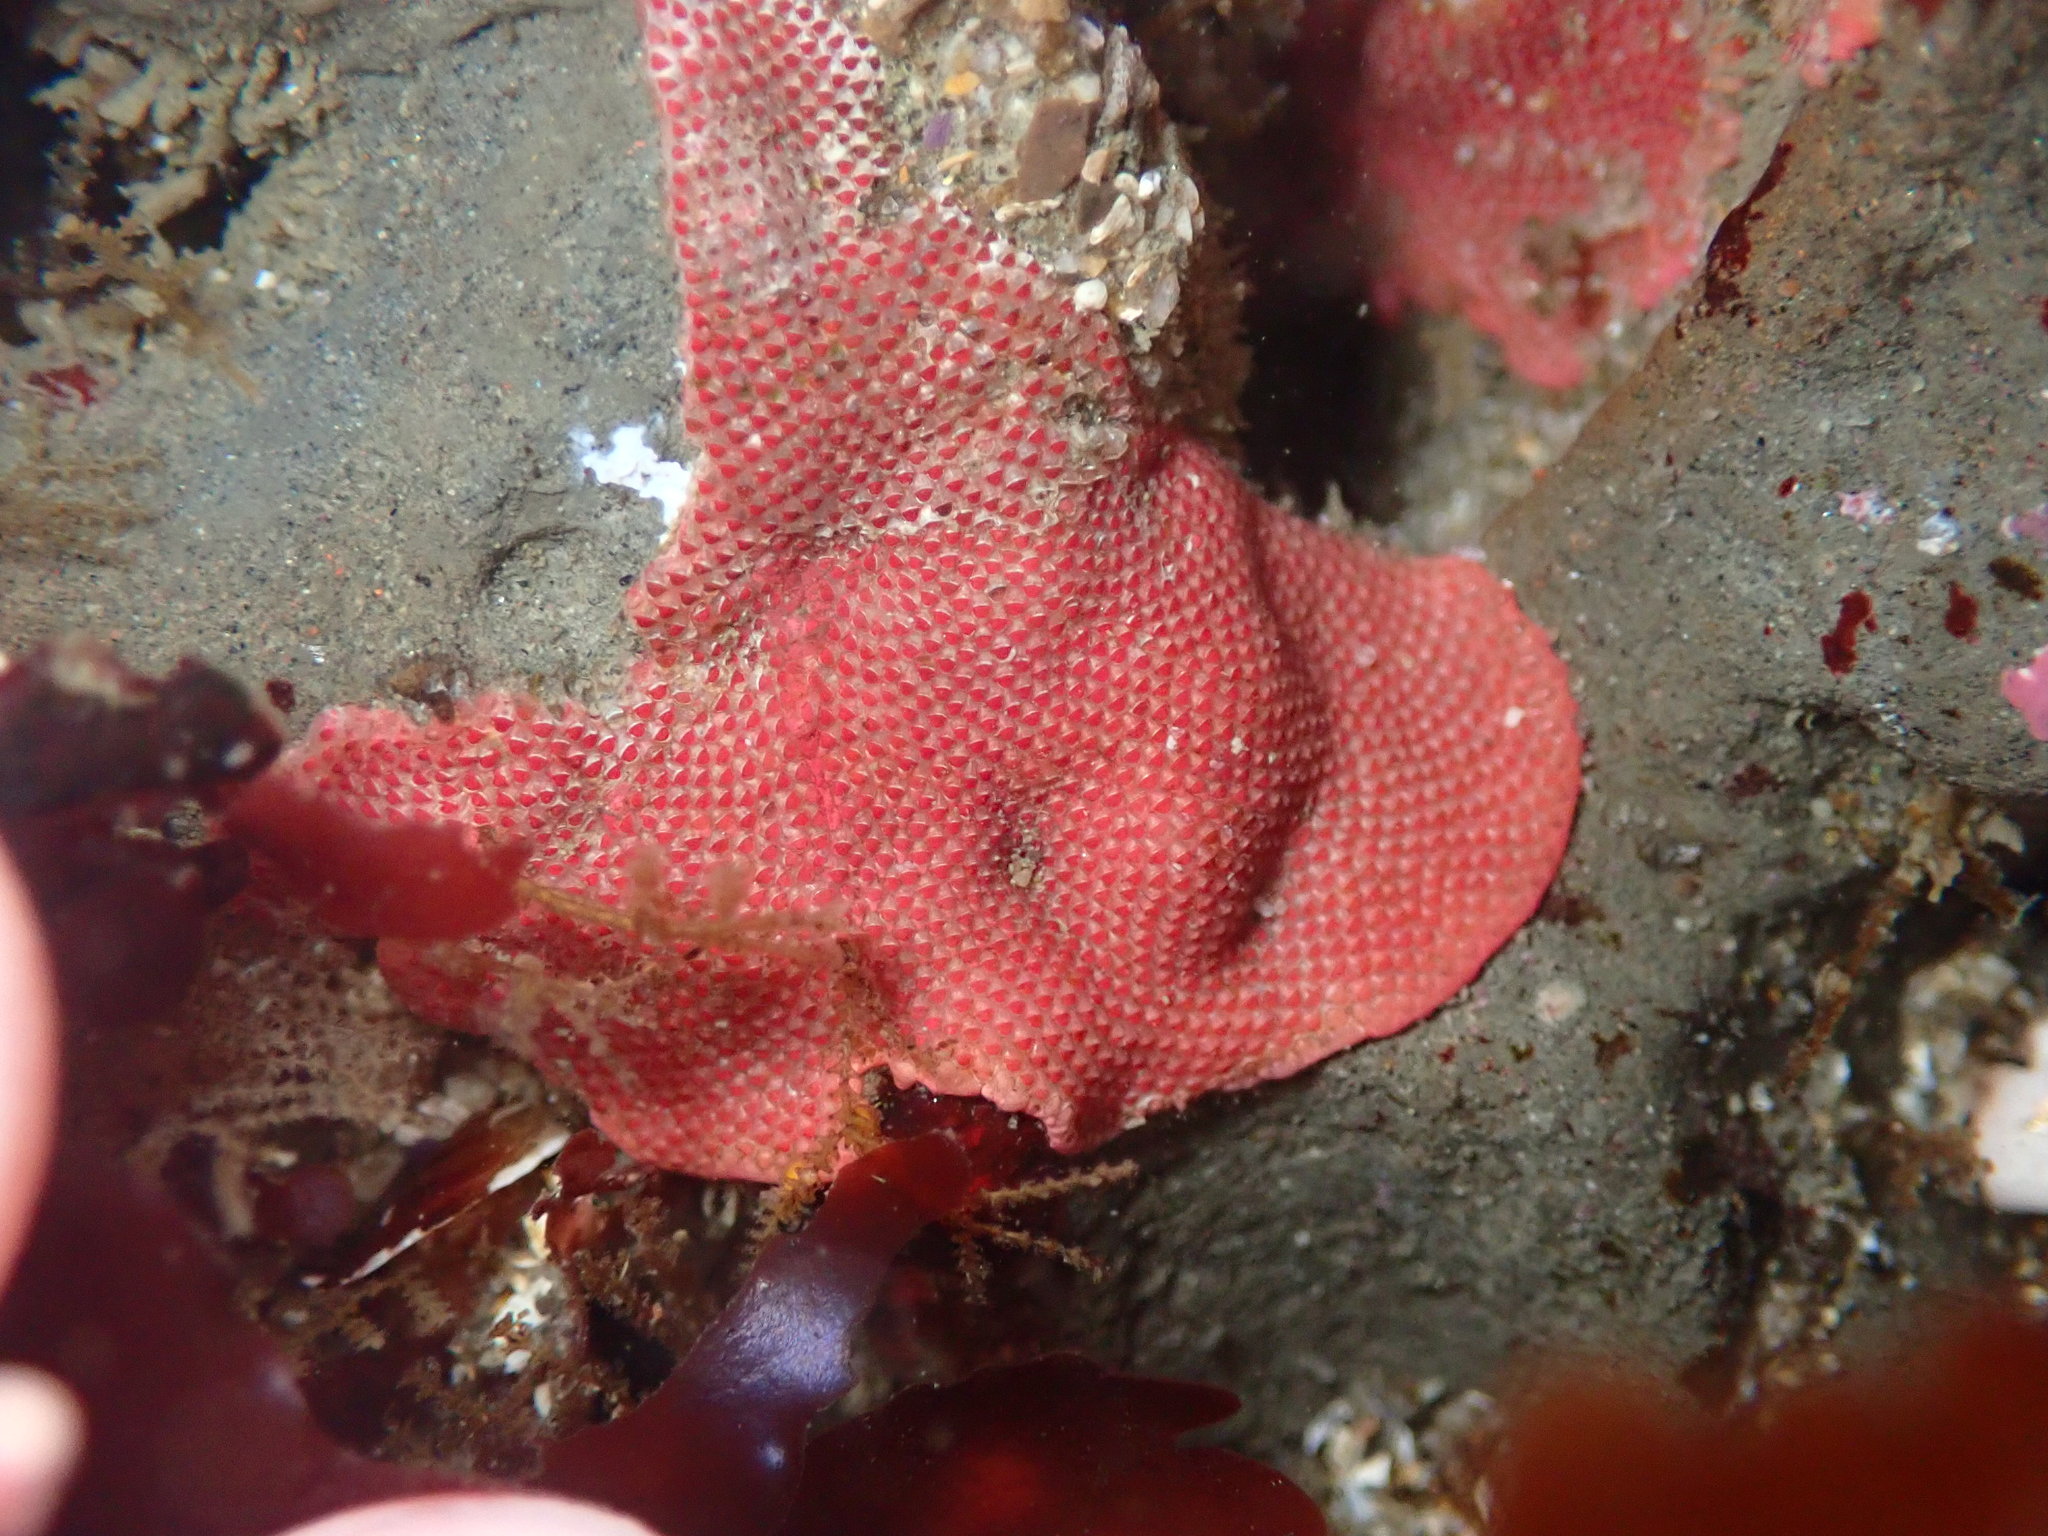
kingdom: Animalia
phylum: Bryozoa
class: Gymnolaemata
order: Cheilostomatida
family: Eurystomellidae
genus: Integripelta
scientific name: Integripelta bilabiata
